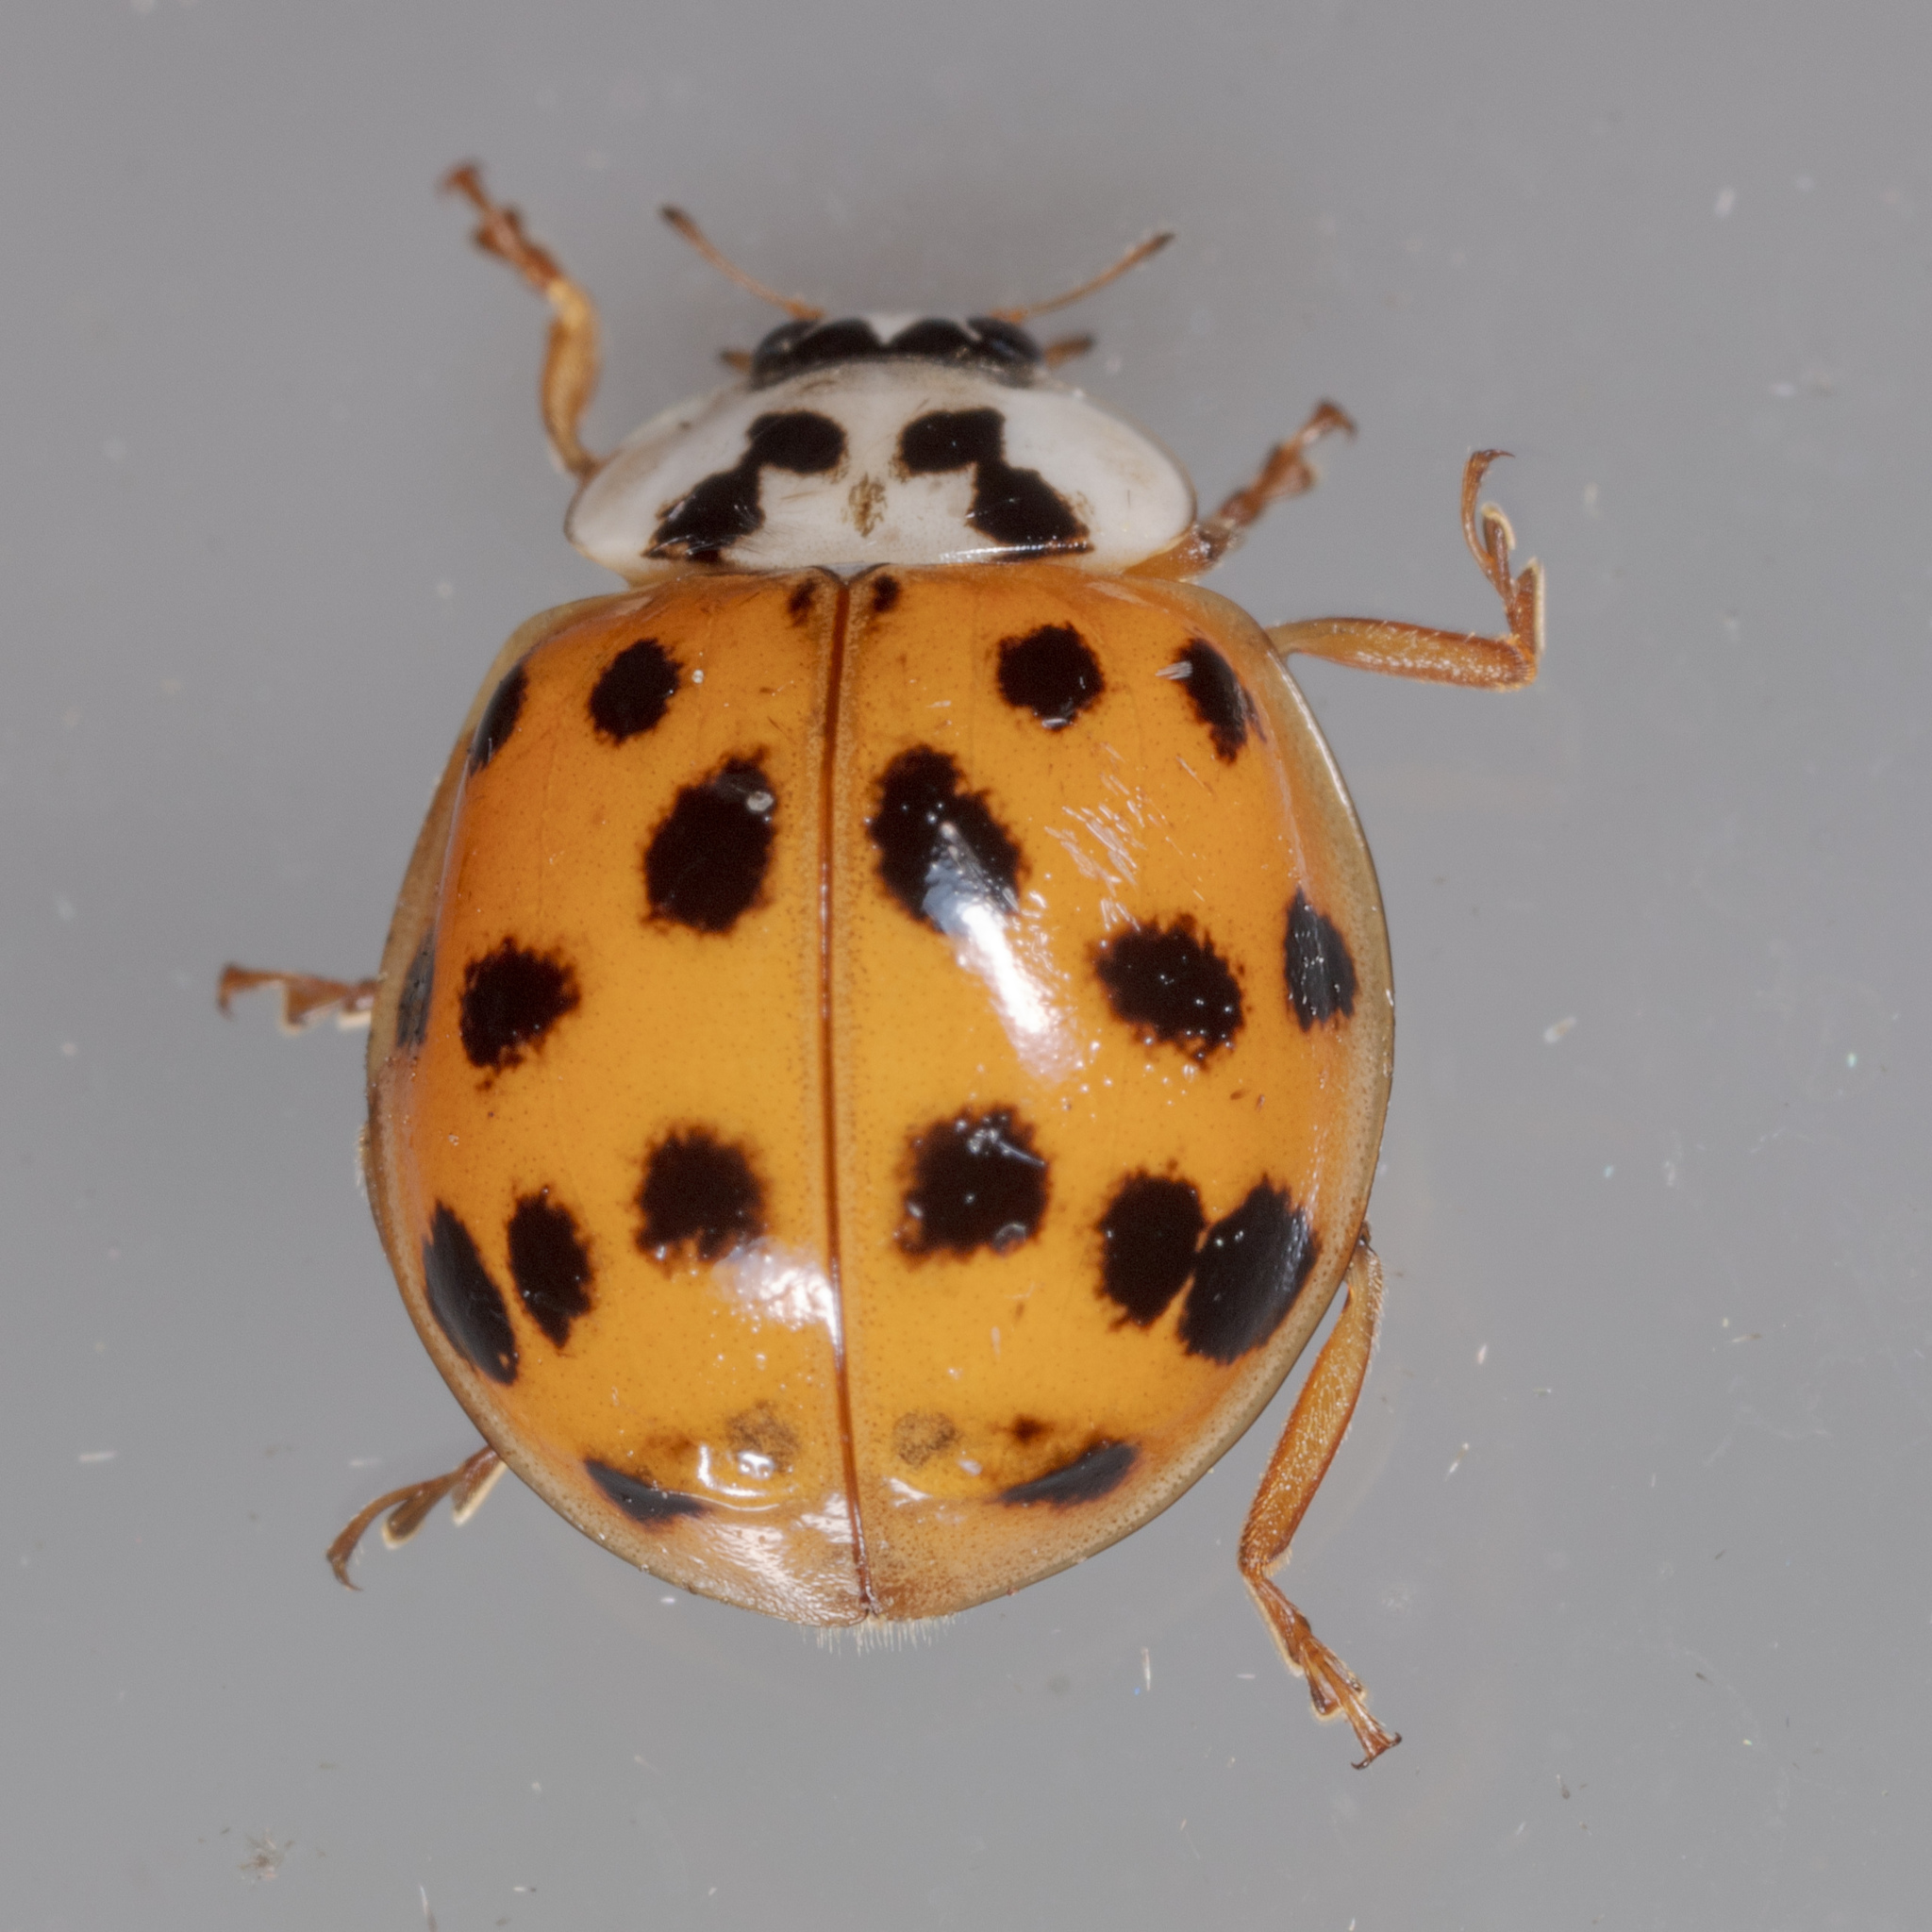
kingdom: Animalia
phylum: Arthropoda
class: Insecta
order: Coleoptera
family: Coccinellidae
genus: Harmonia
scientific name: Harmonia axyridis
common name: Harlequin ladybird
